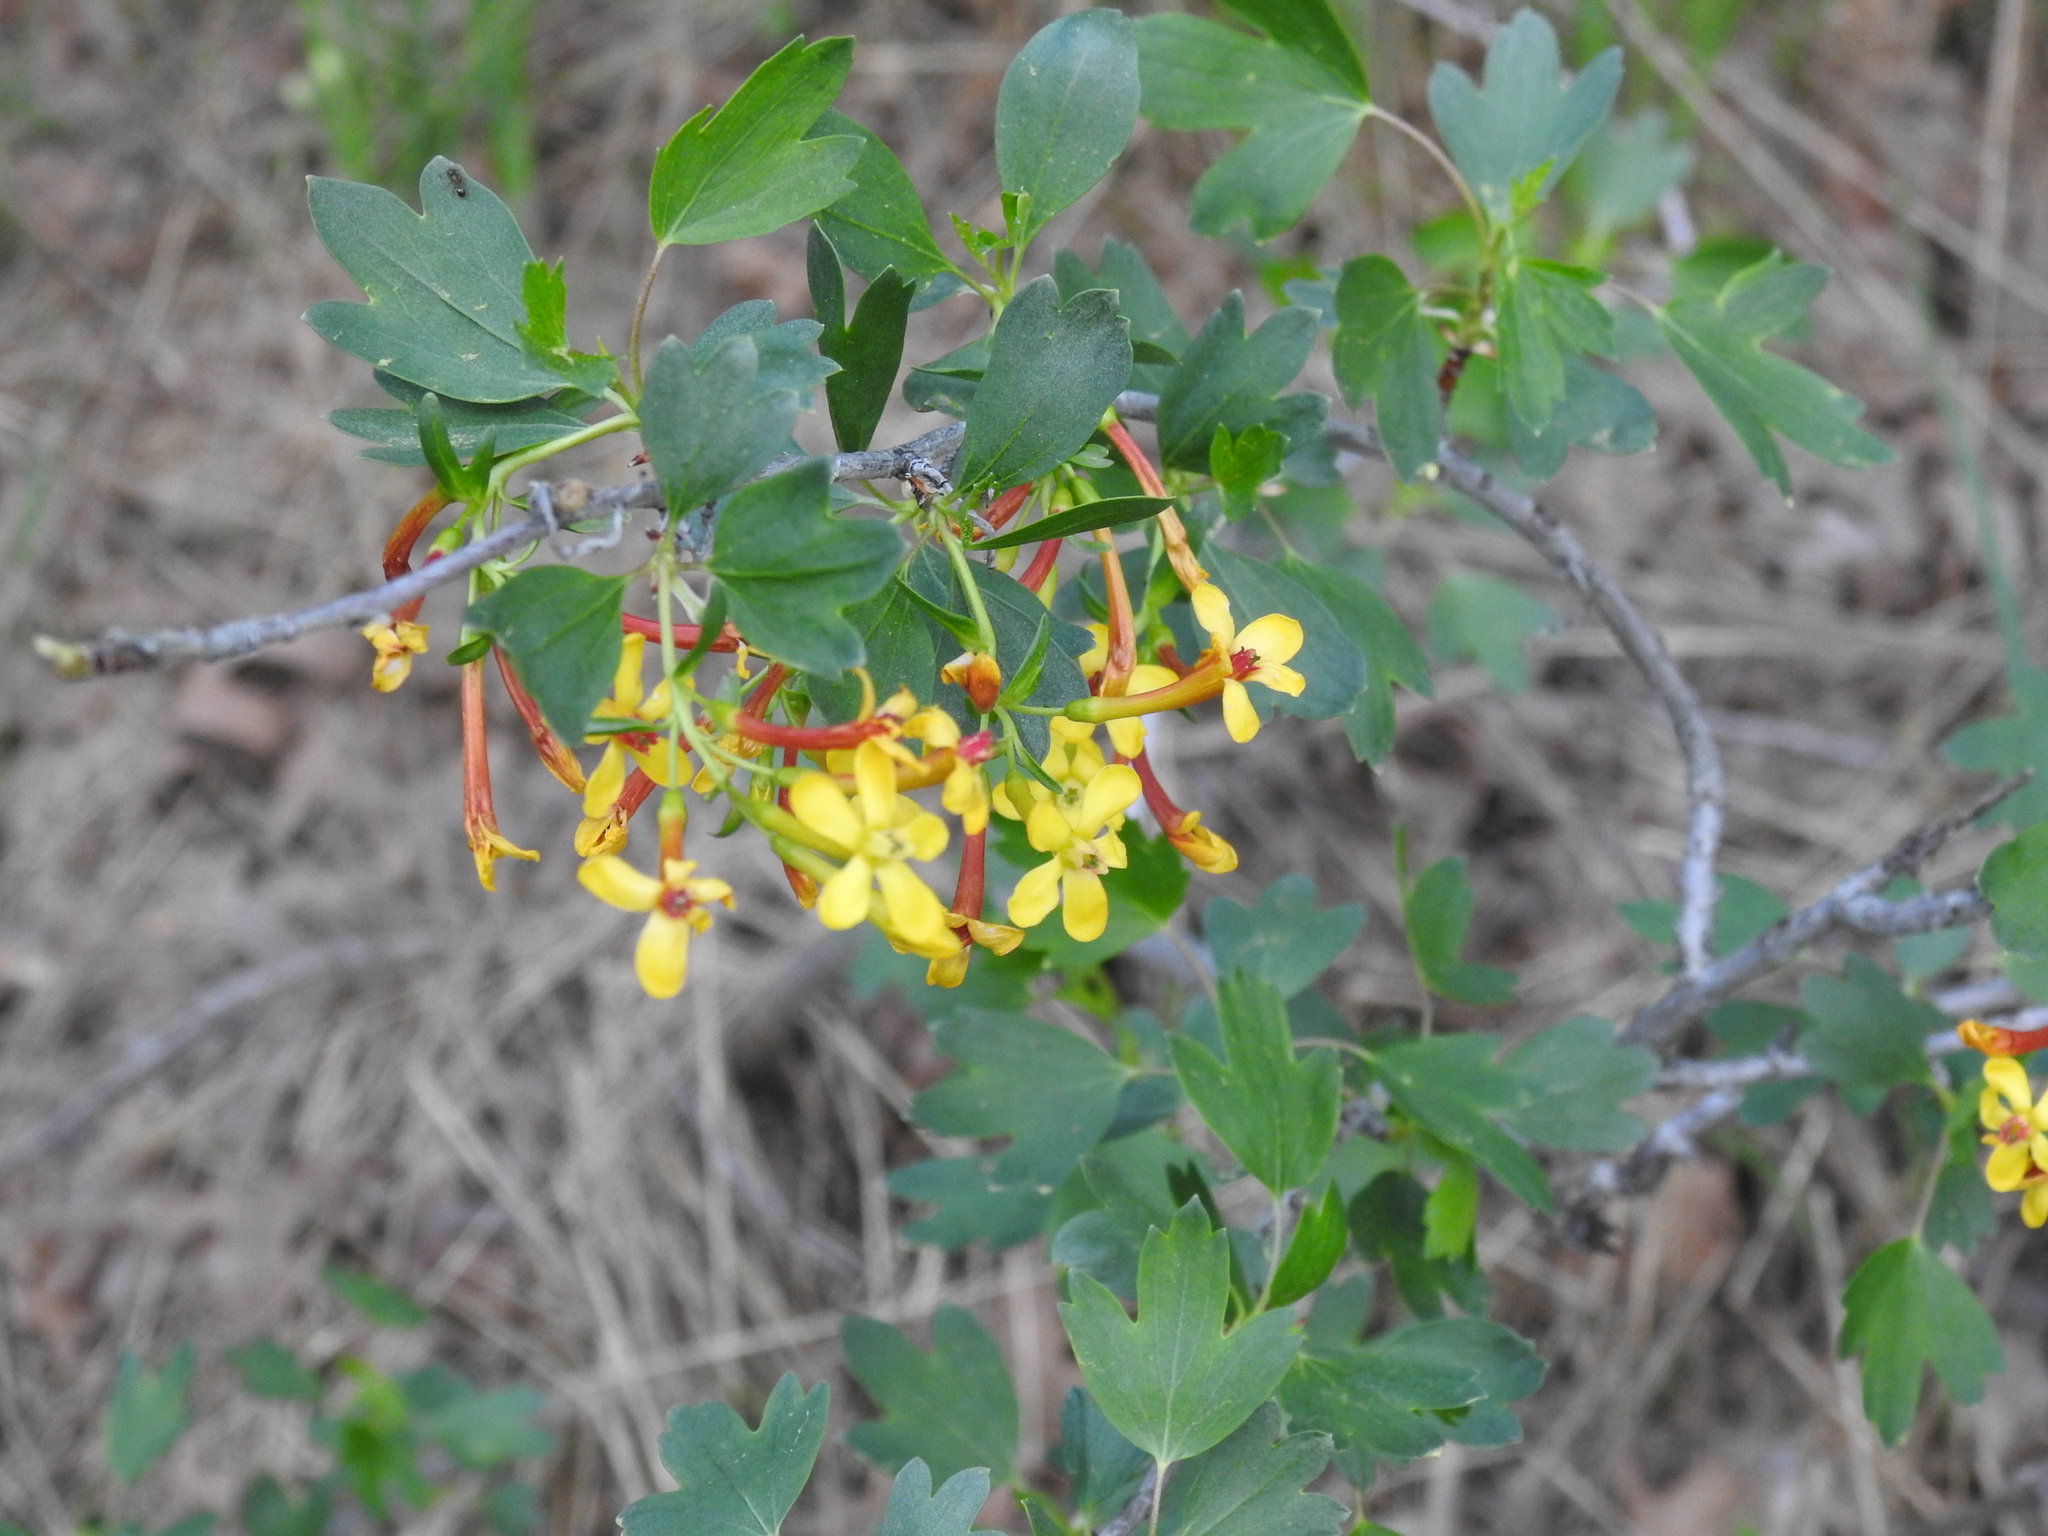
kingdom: Plantae
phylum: Tracheophyta
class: Magnoliopsida
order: Saxifragales
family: Grossulariaceae
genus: Ribes
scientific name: Ribes aureum
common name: Golden currant
